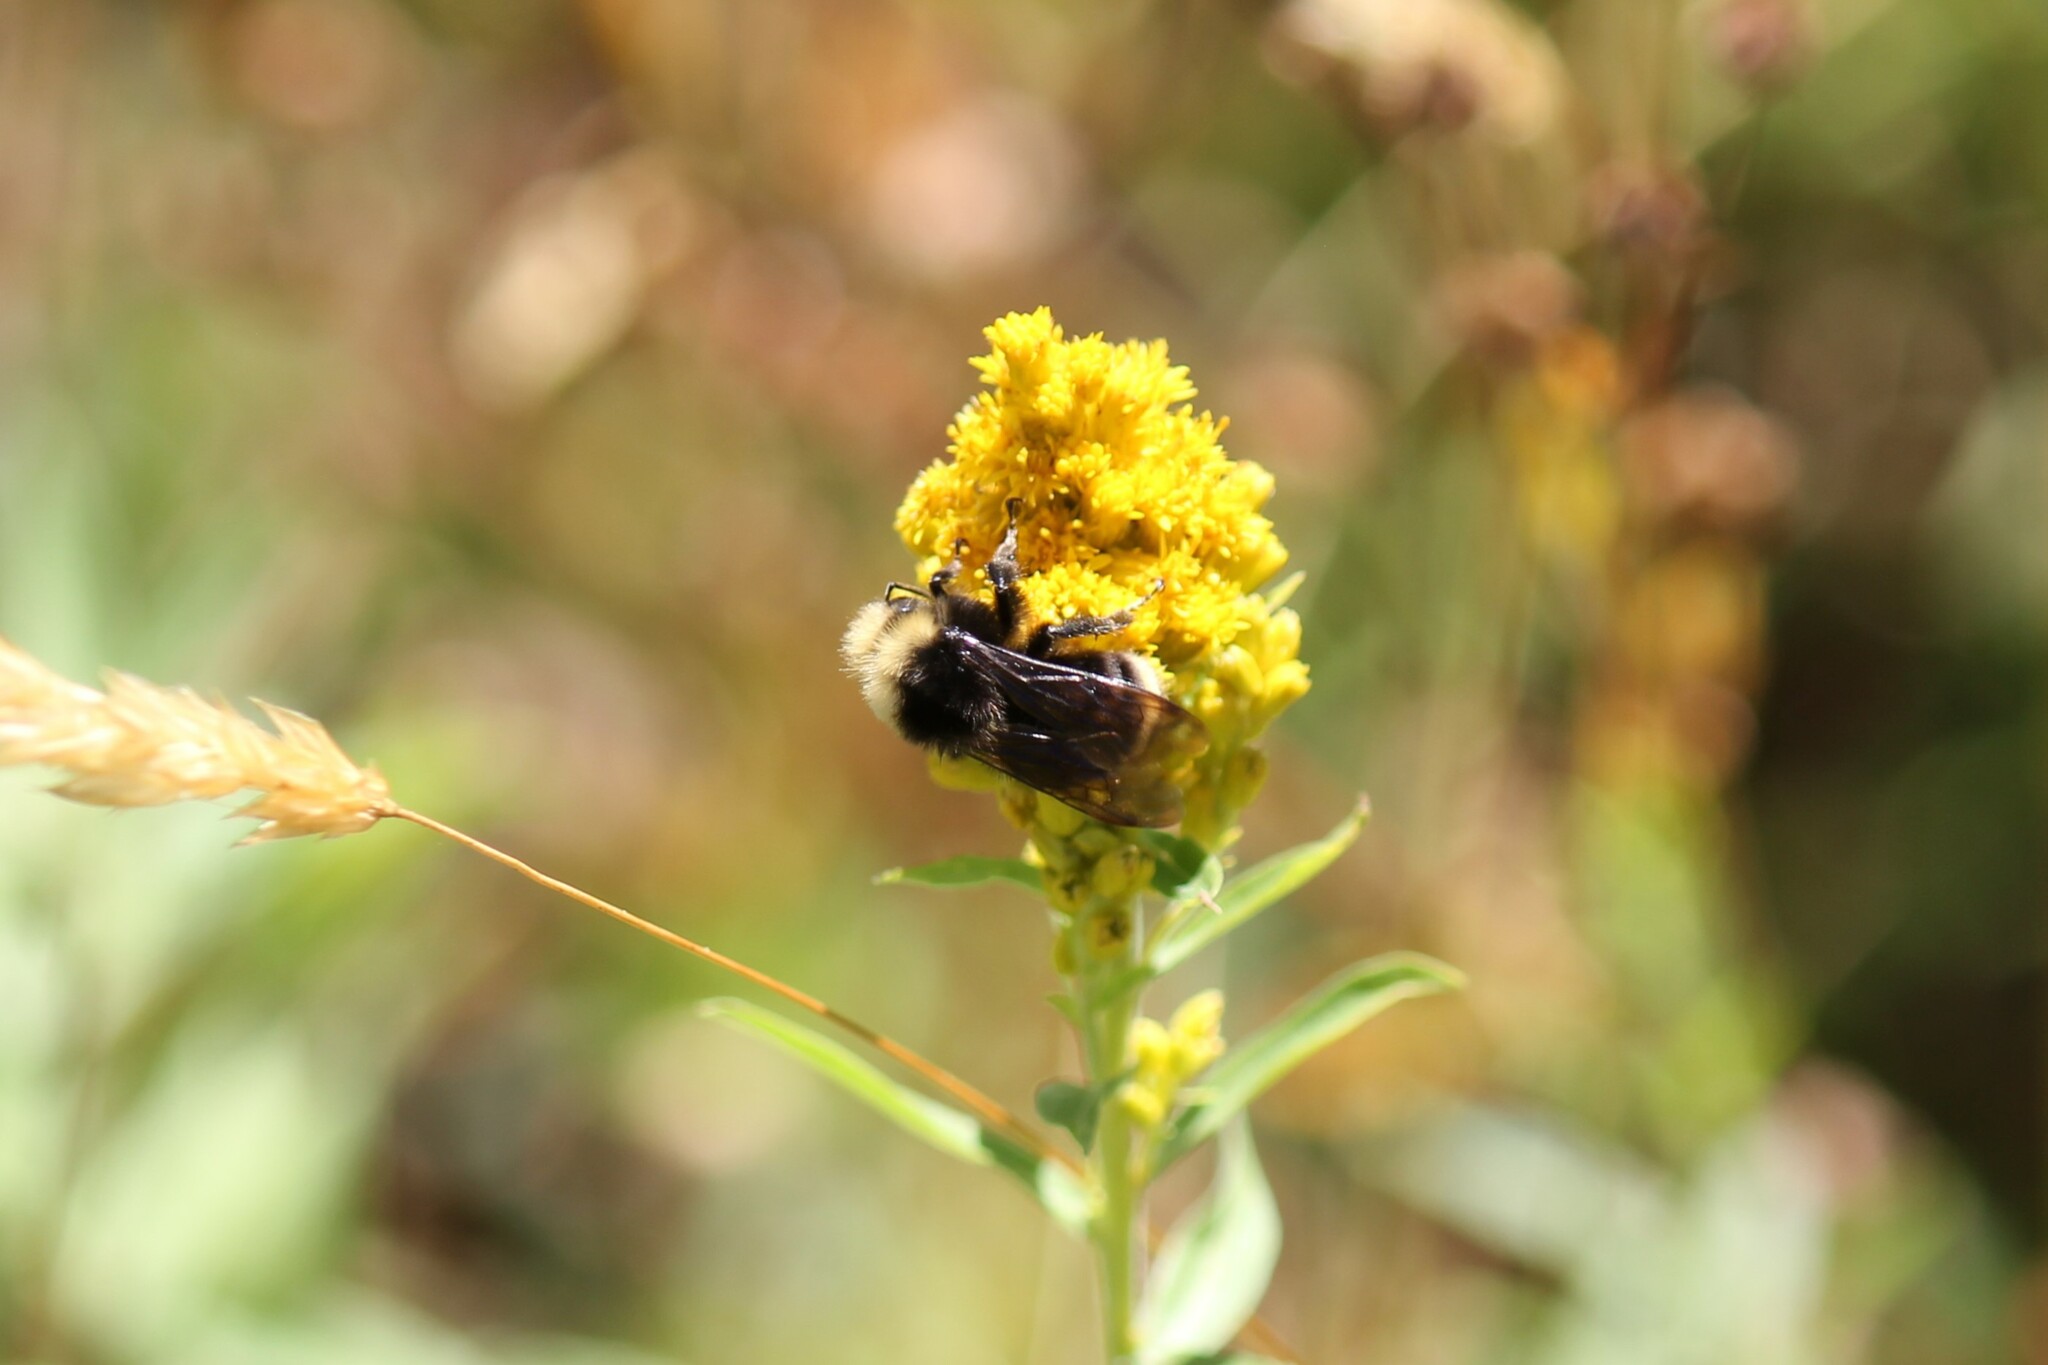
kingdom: Animalia
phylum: Arthropoda
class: Insecta
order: Hymenoptera
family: Apidae
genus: Bombus
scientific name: Bombus vosnesenskii
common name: Vosnesensky bumble bee
